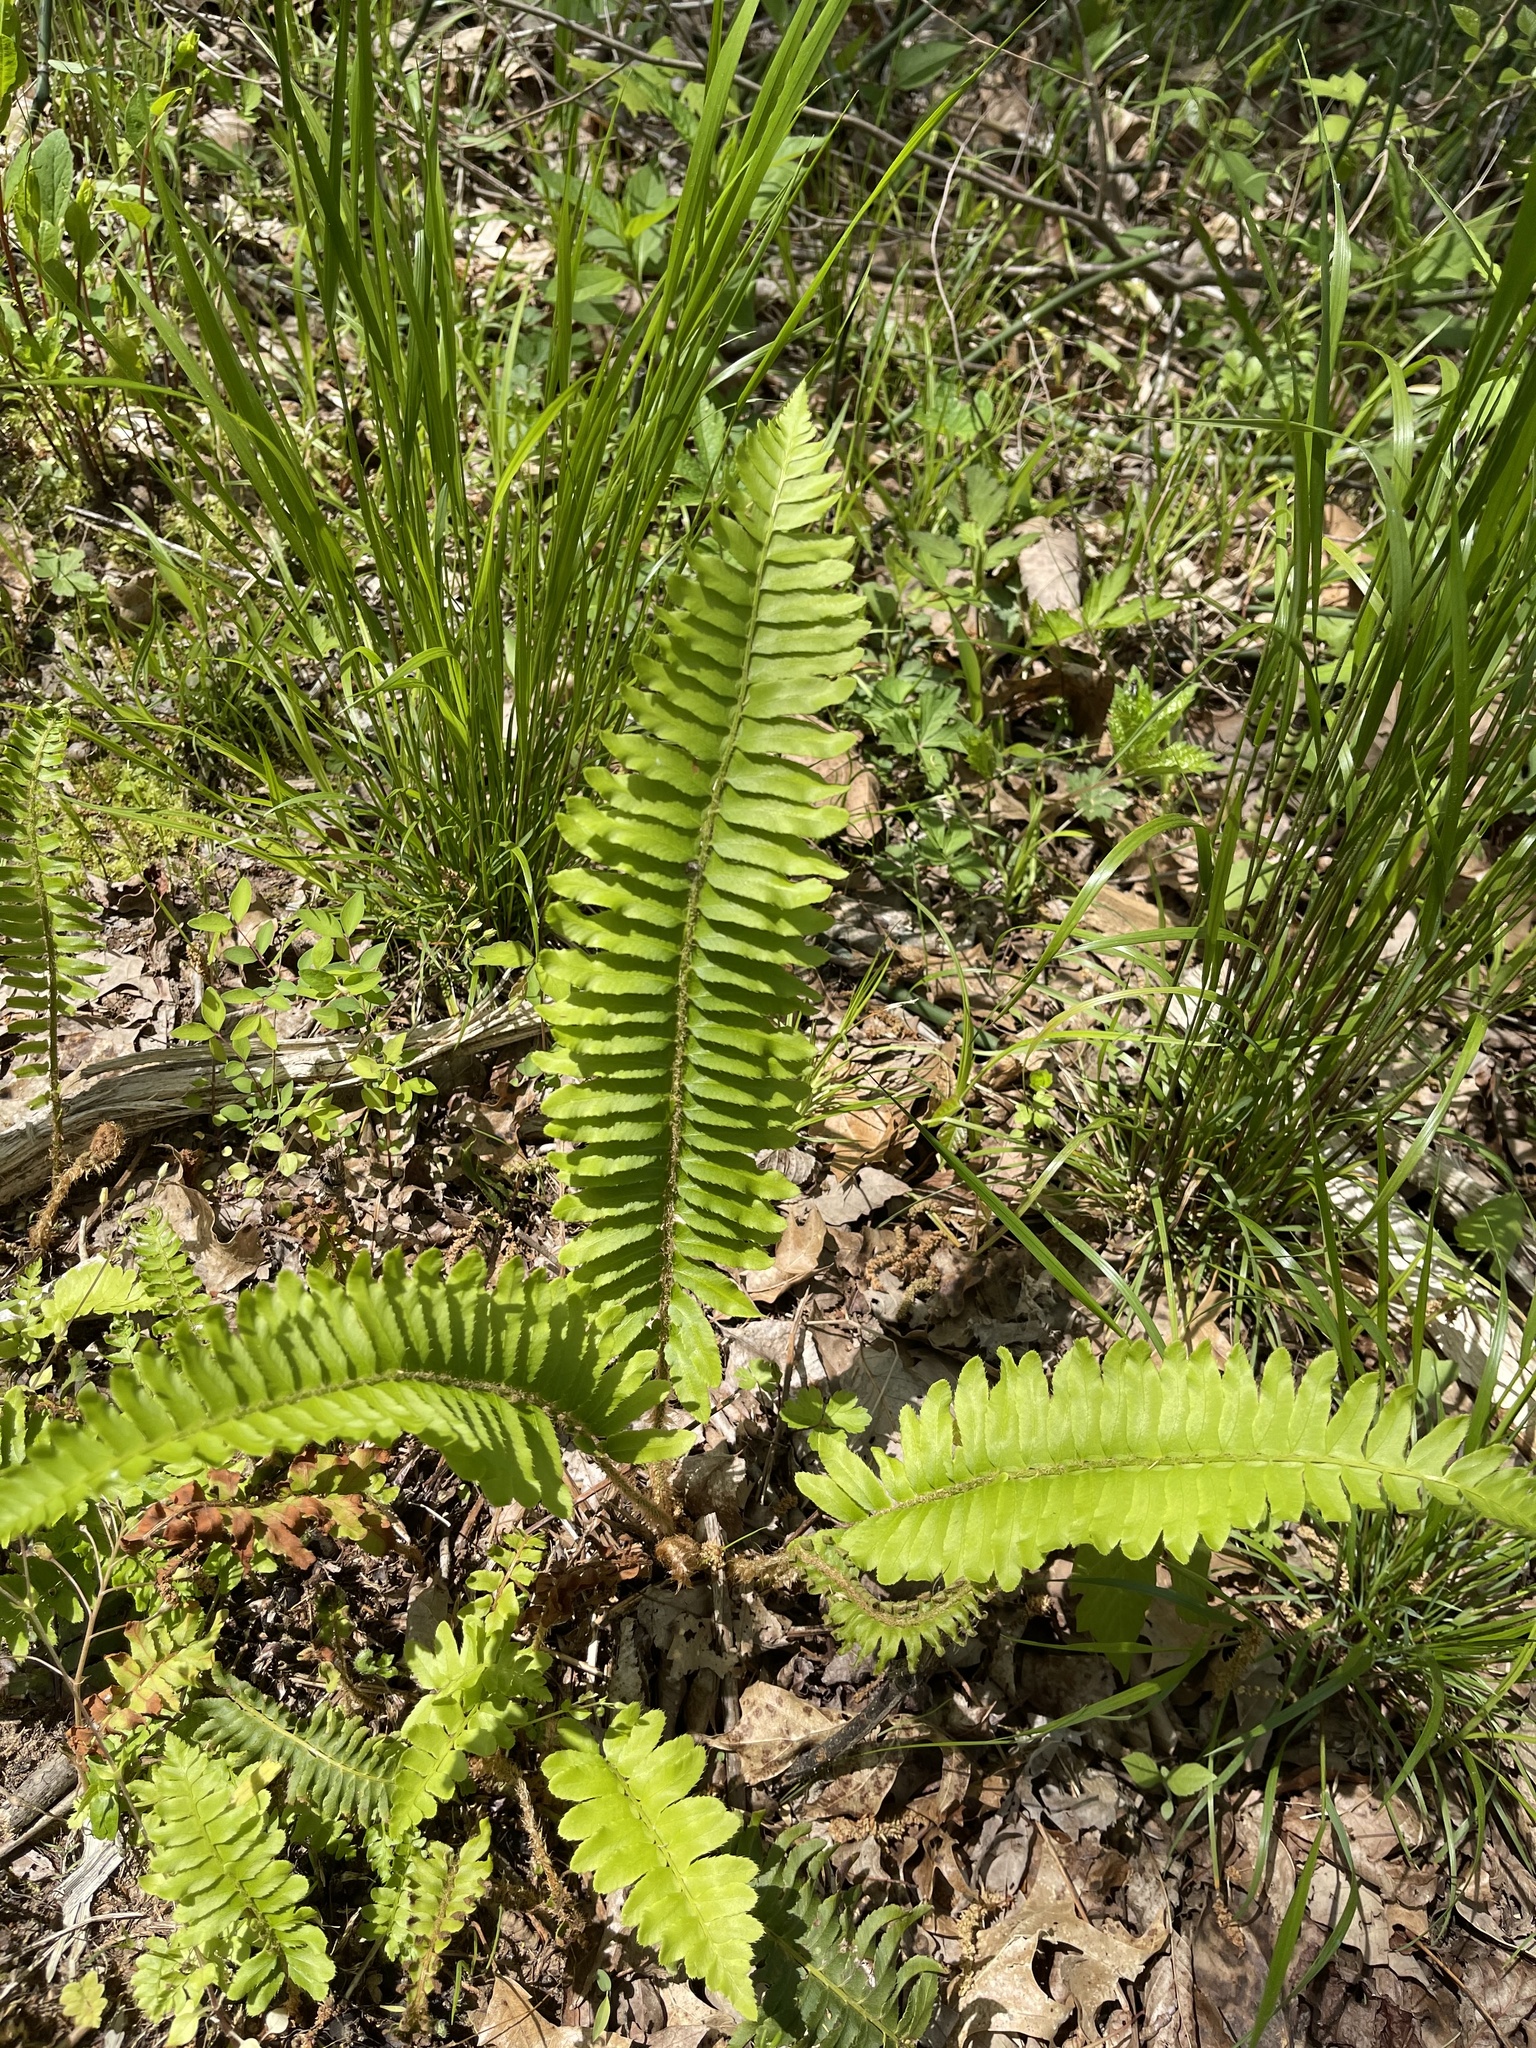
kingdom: Plantae
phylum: Tracheophyta
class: Polypodiopsida
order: Polypodiales
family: Dryopteridaceae
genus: Polystichum
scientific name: Polystichum acrostichoides
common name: Christmas fern
